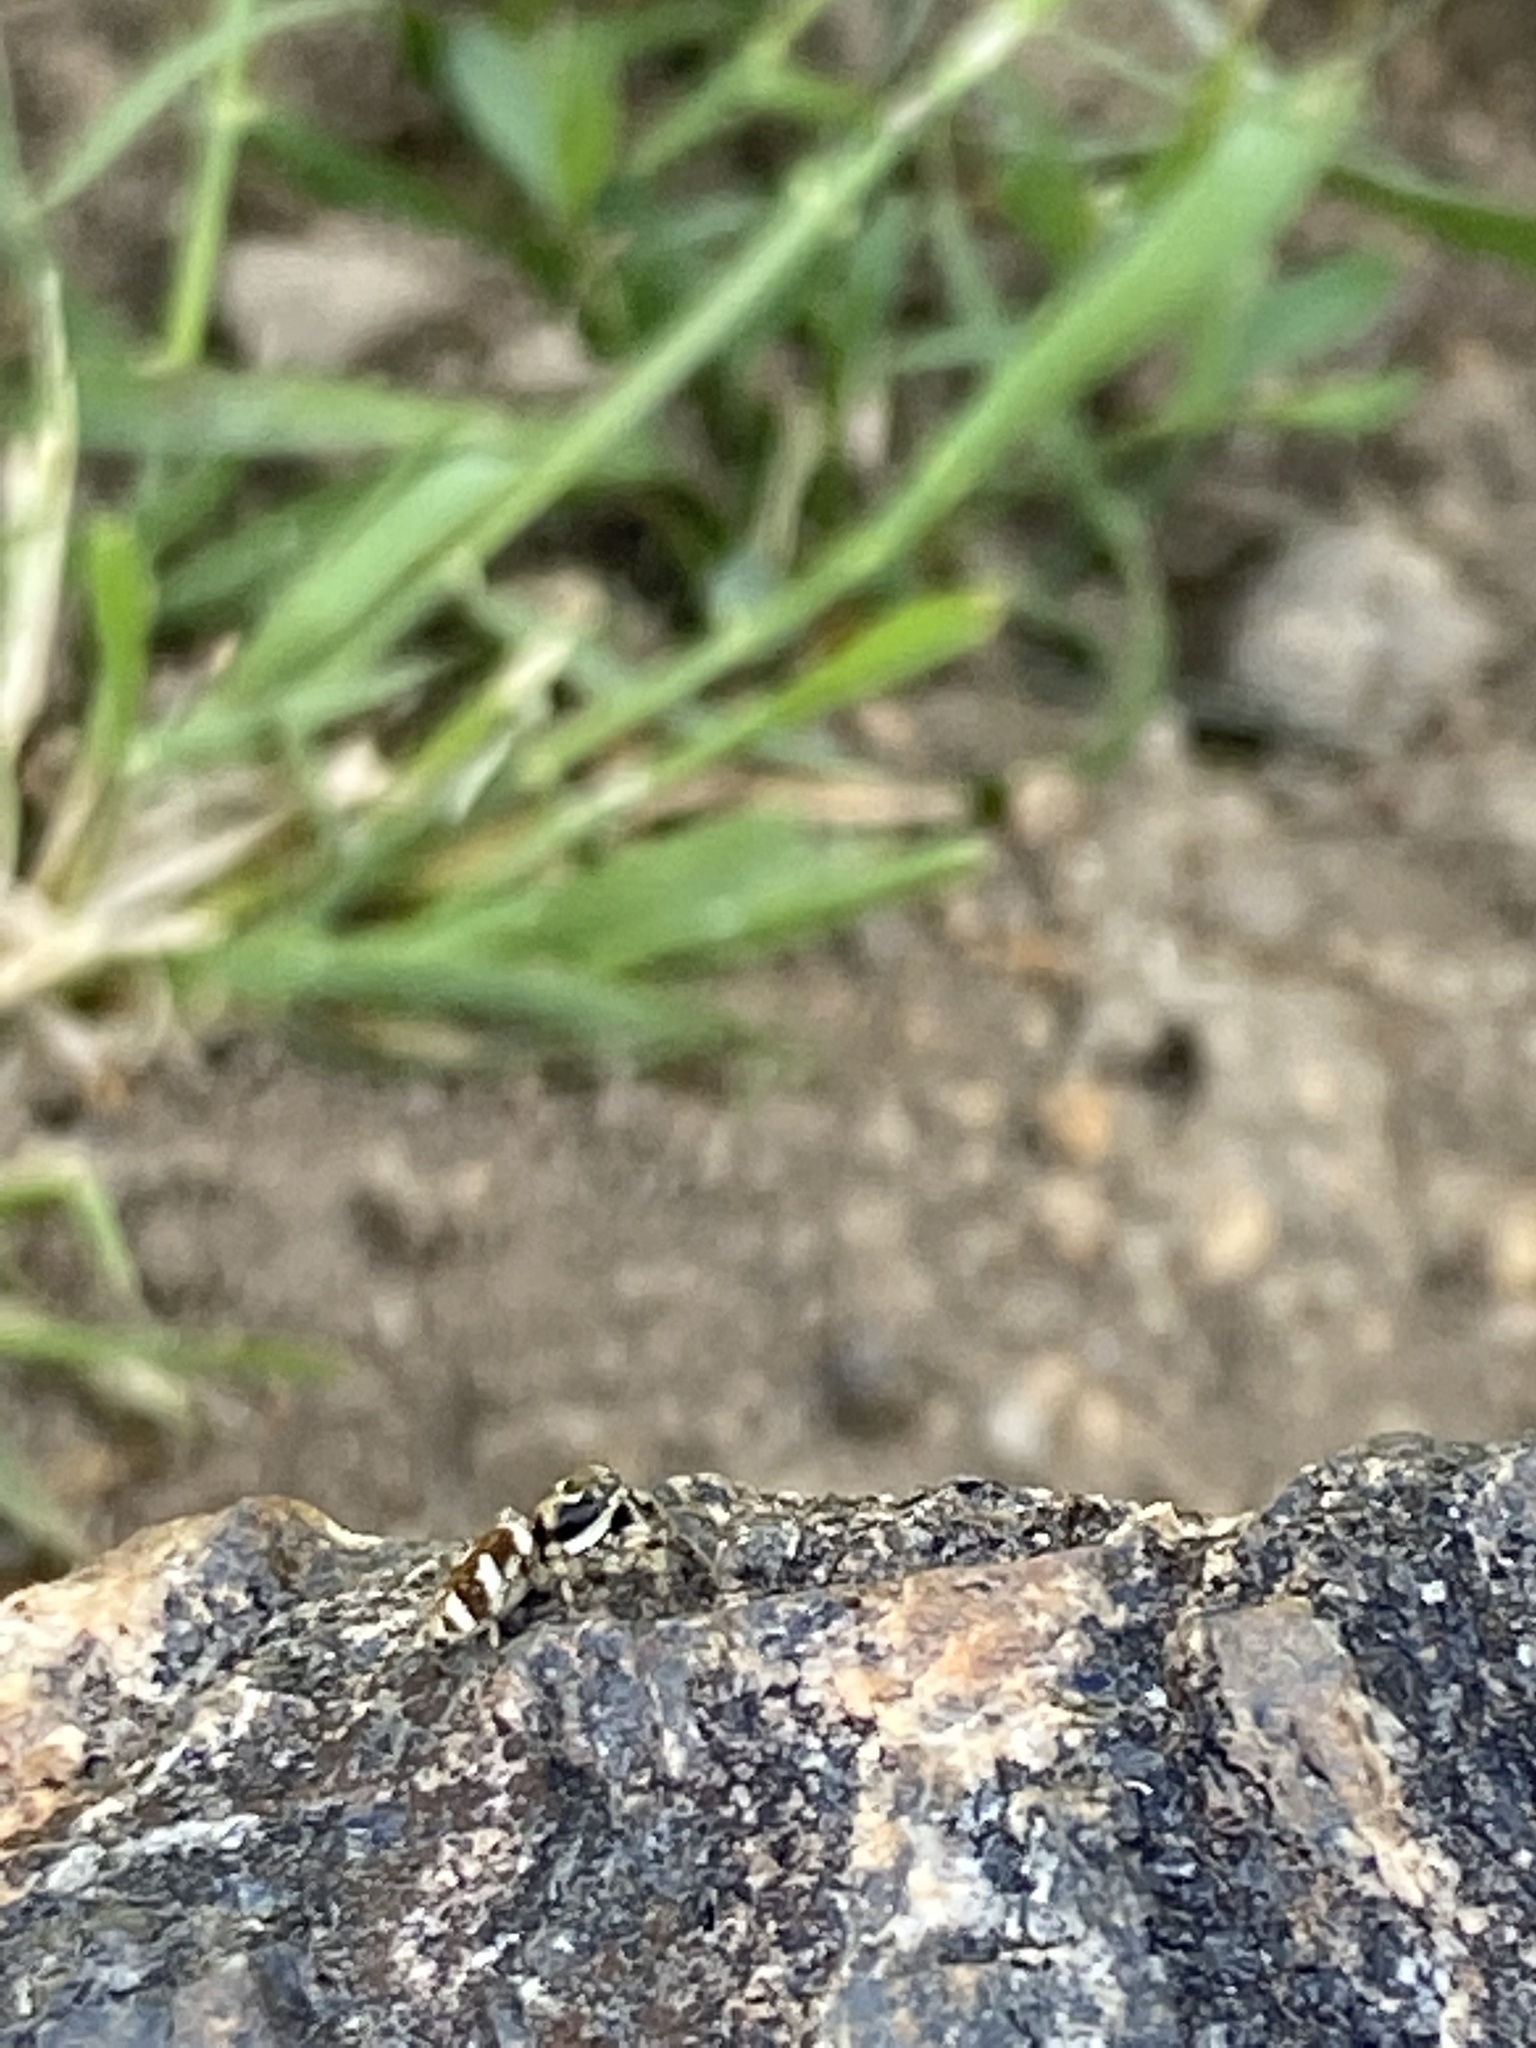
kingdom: Animalia
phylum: Arthropoda
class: Arachnida
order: Araneae
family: Salticidae
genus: Salticus
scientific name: Salticus scenicus
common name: Zebra jumper
